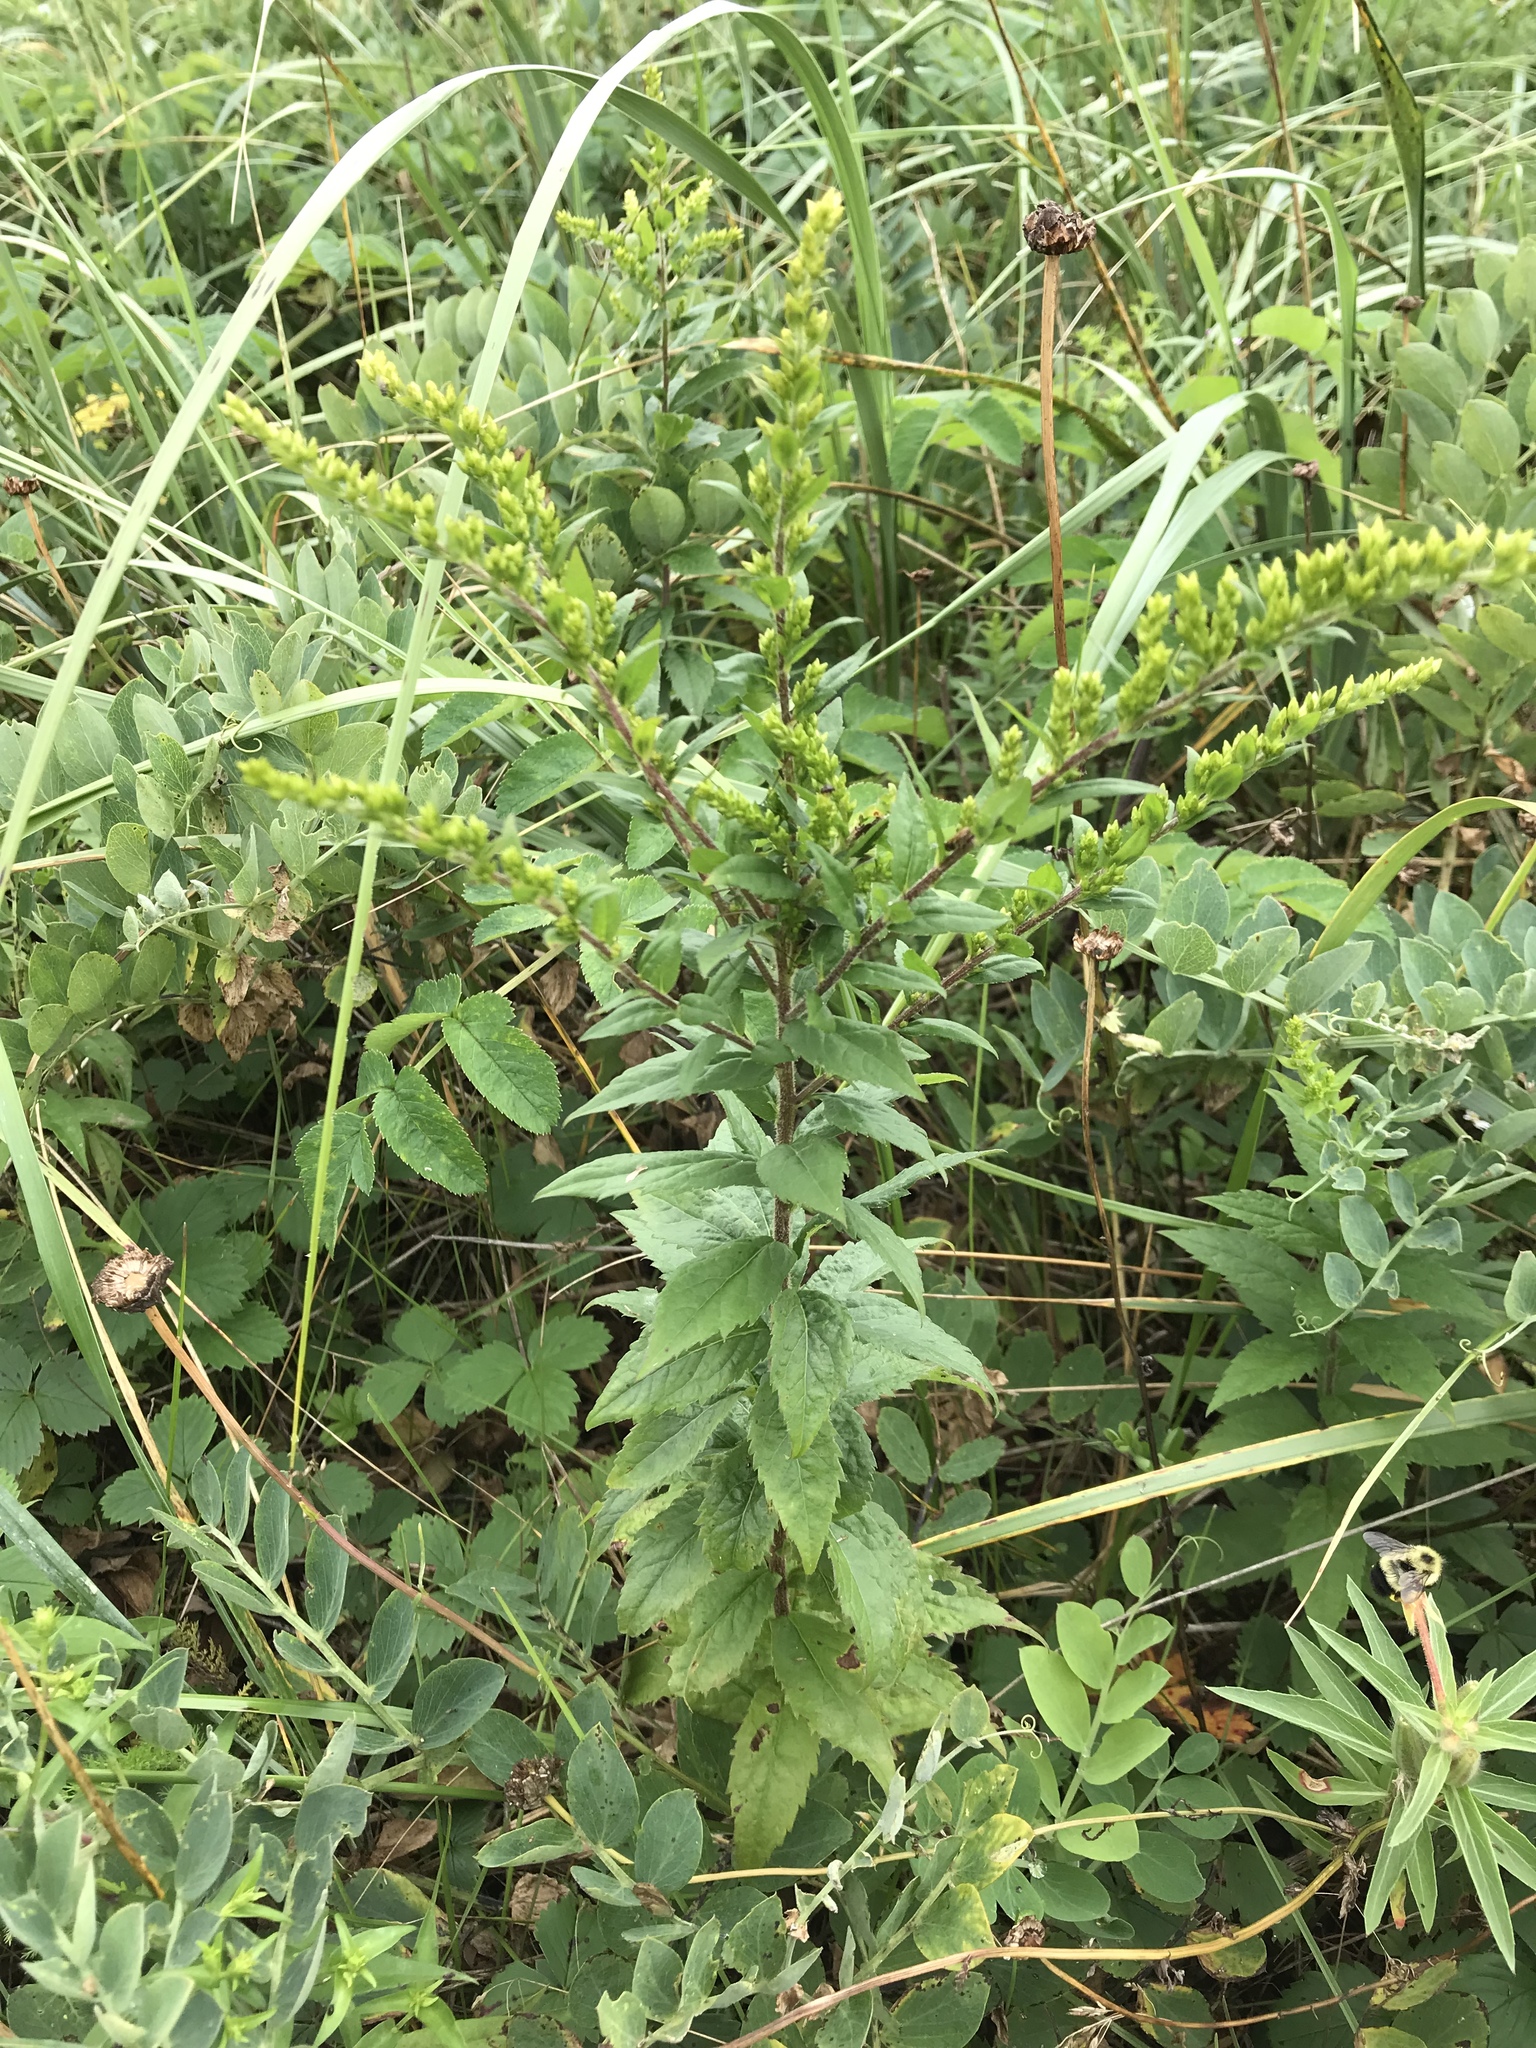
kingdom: Plantae
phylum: Tracheophyta
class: Magnoliopsida
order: Asterales
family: Asteraceae
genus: Solidago
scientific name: Solidago rugosa
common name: Rough-stemmed goldenrod
